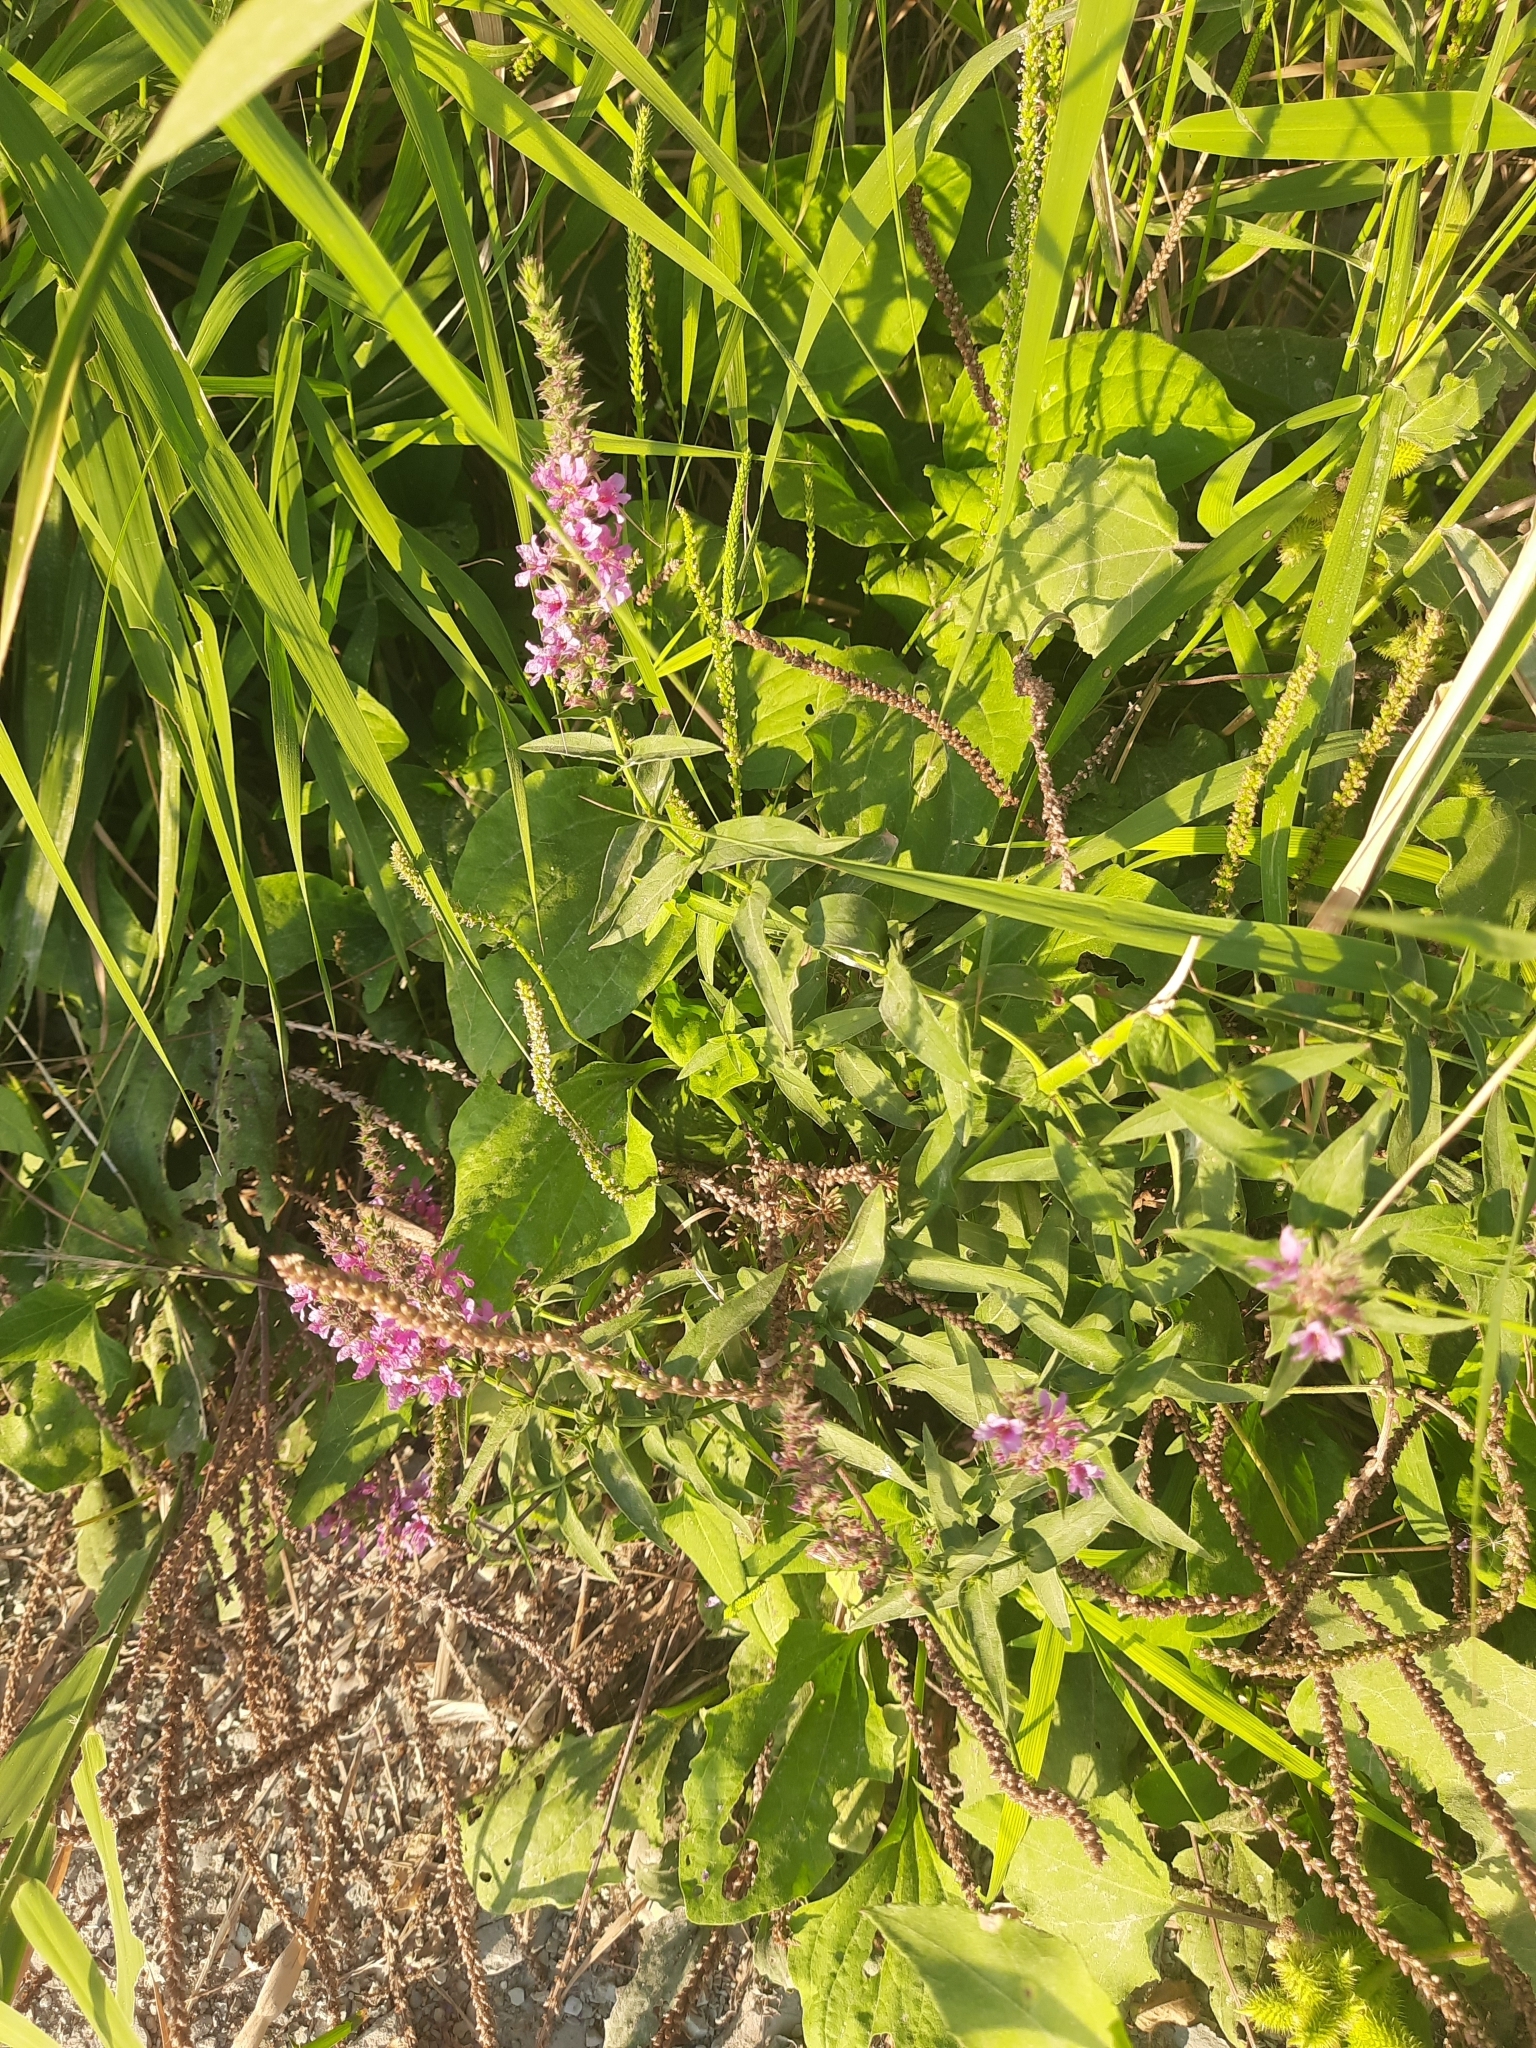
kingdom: Plantae
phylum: Tracheophyta
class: Magnoliopsida
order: Myrtales
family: Lythraceae
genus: Lythrum
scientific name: Lythrum salicaria
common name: Purple loosestrife
